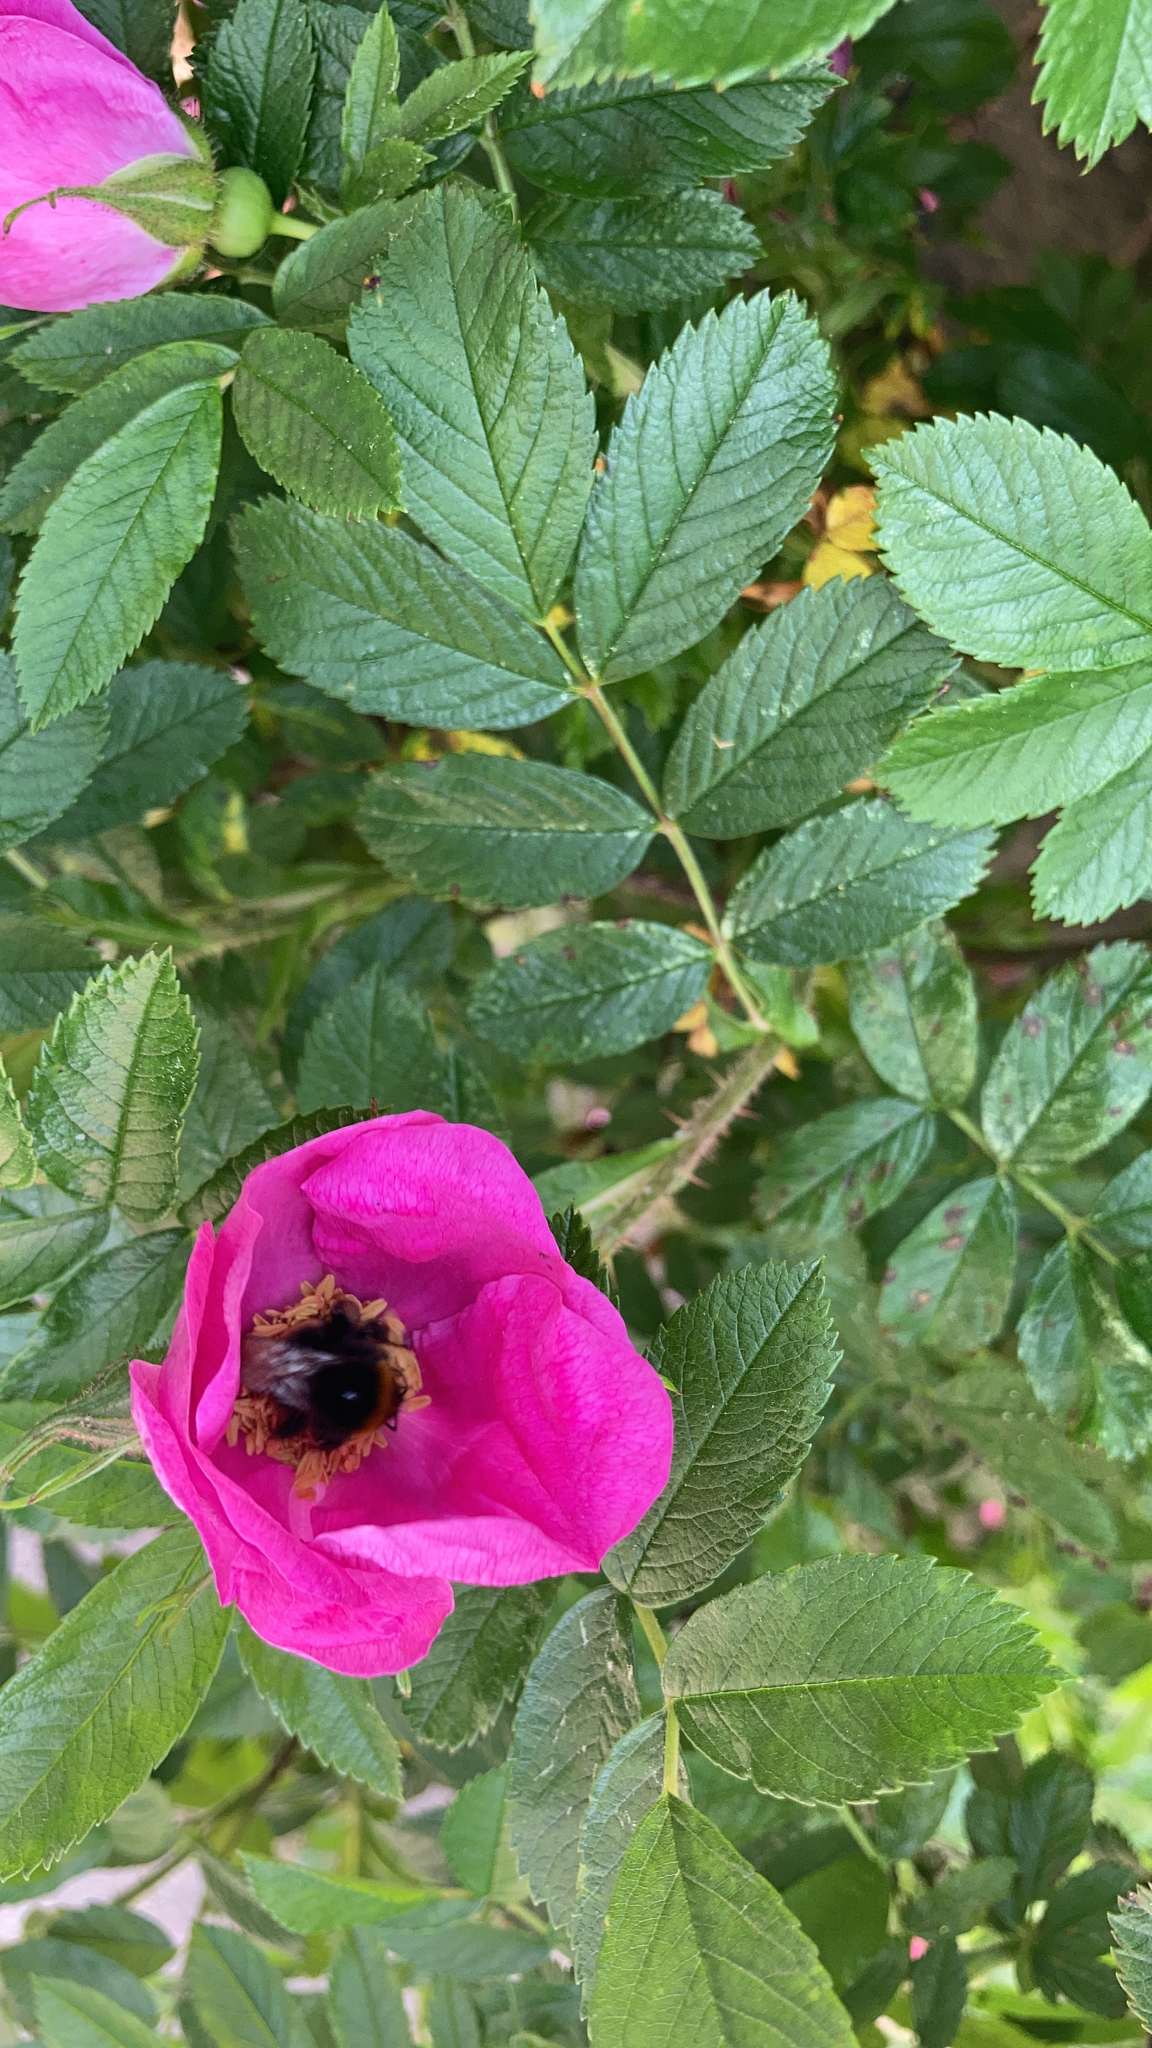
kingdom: Animalia
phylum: Arthropoda
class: Insecta
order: Hymenoptera
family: Apidae
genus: Bombus
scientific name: Bombus
